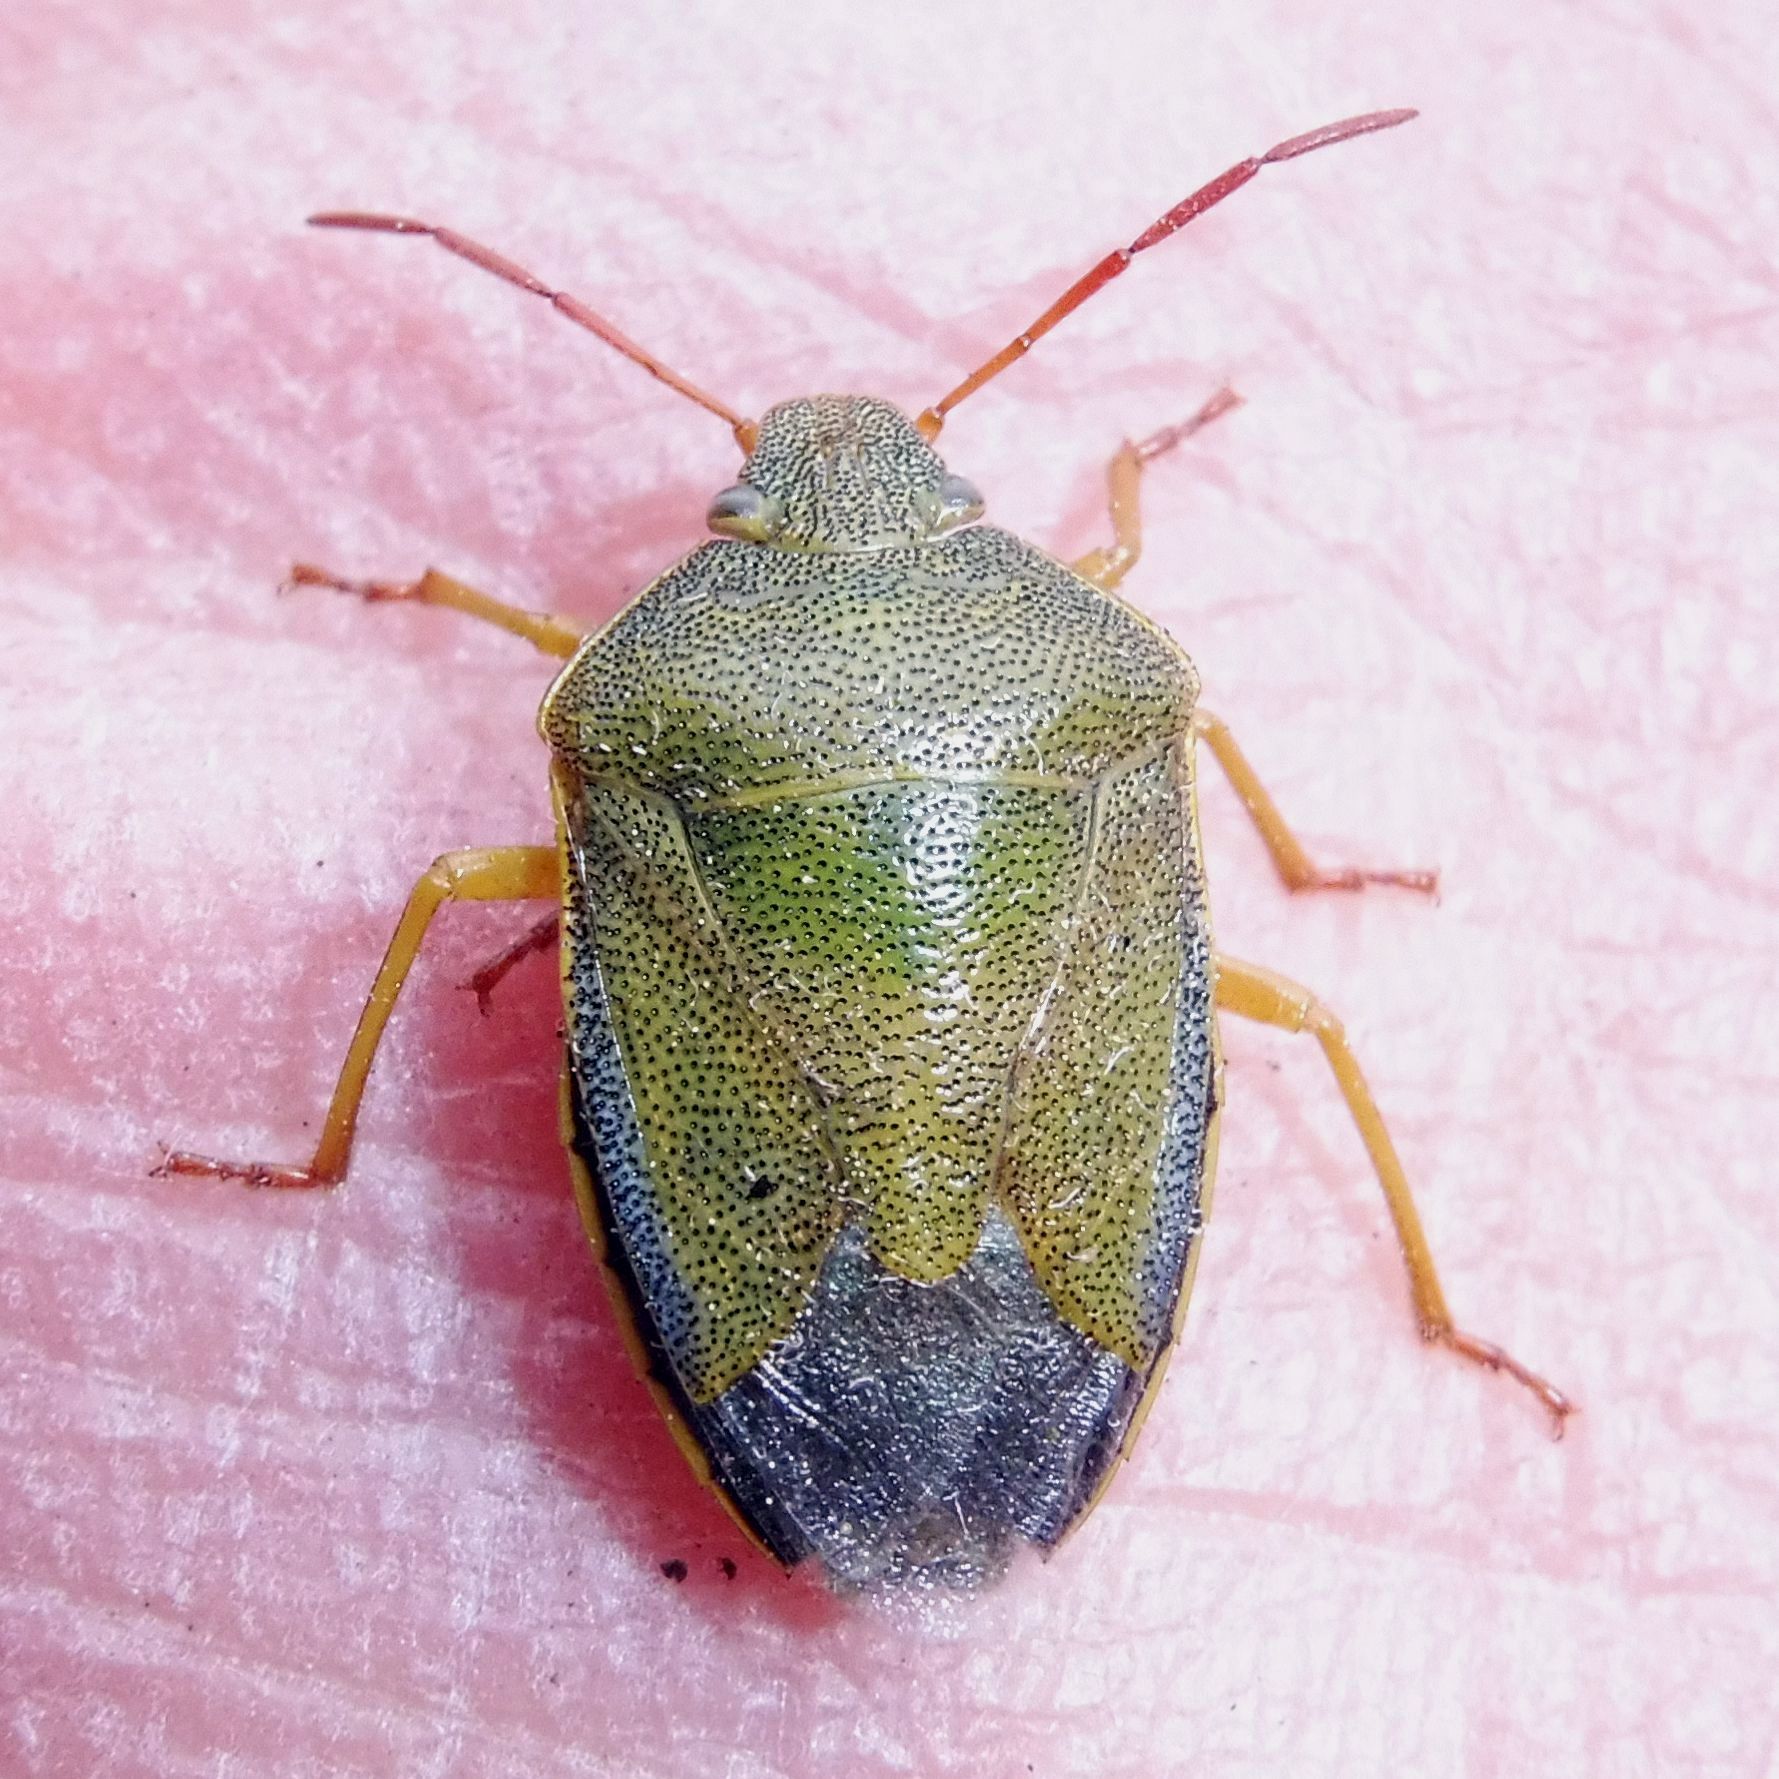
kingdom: Animalia
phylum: Arthropoda
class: Insecta
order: Hemiptera
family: Pentatomidae
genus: Piezodorus
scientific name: Piezodorus lituratus
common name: Stink bug
